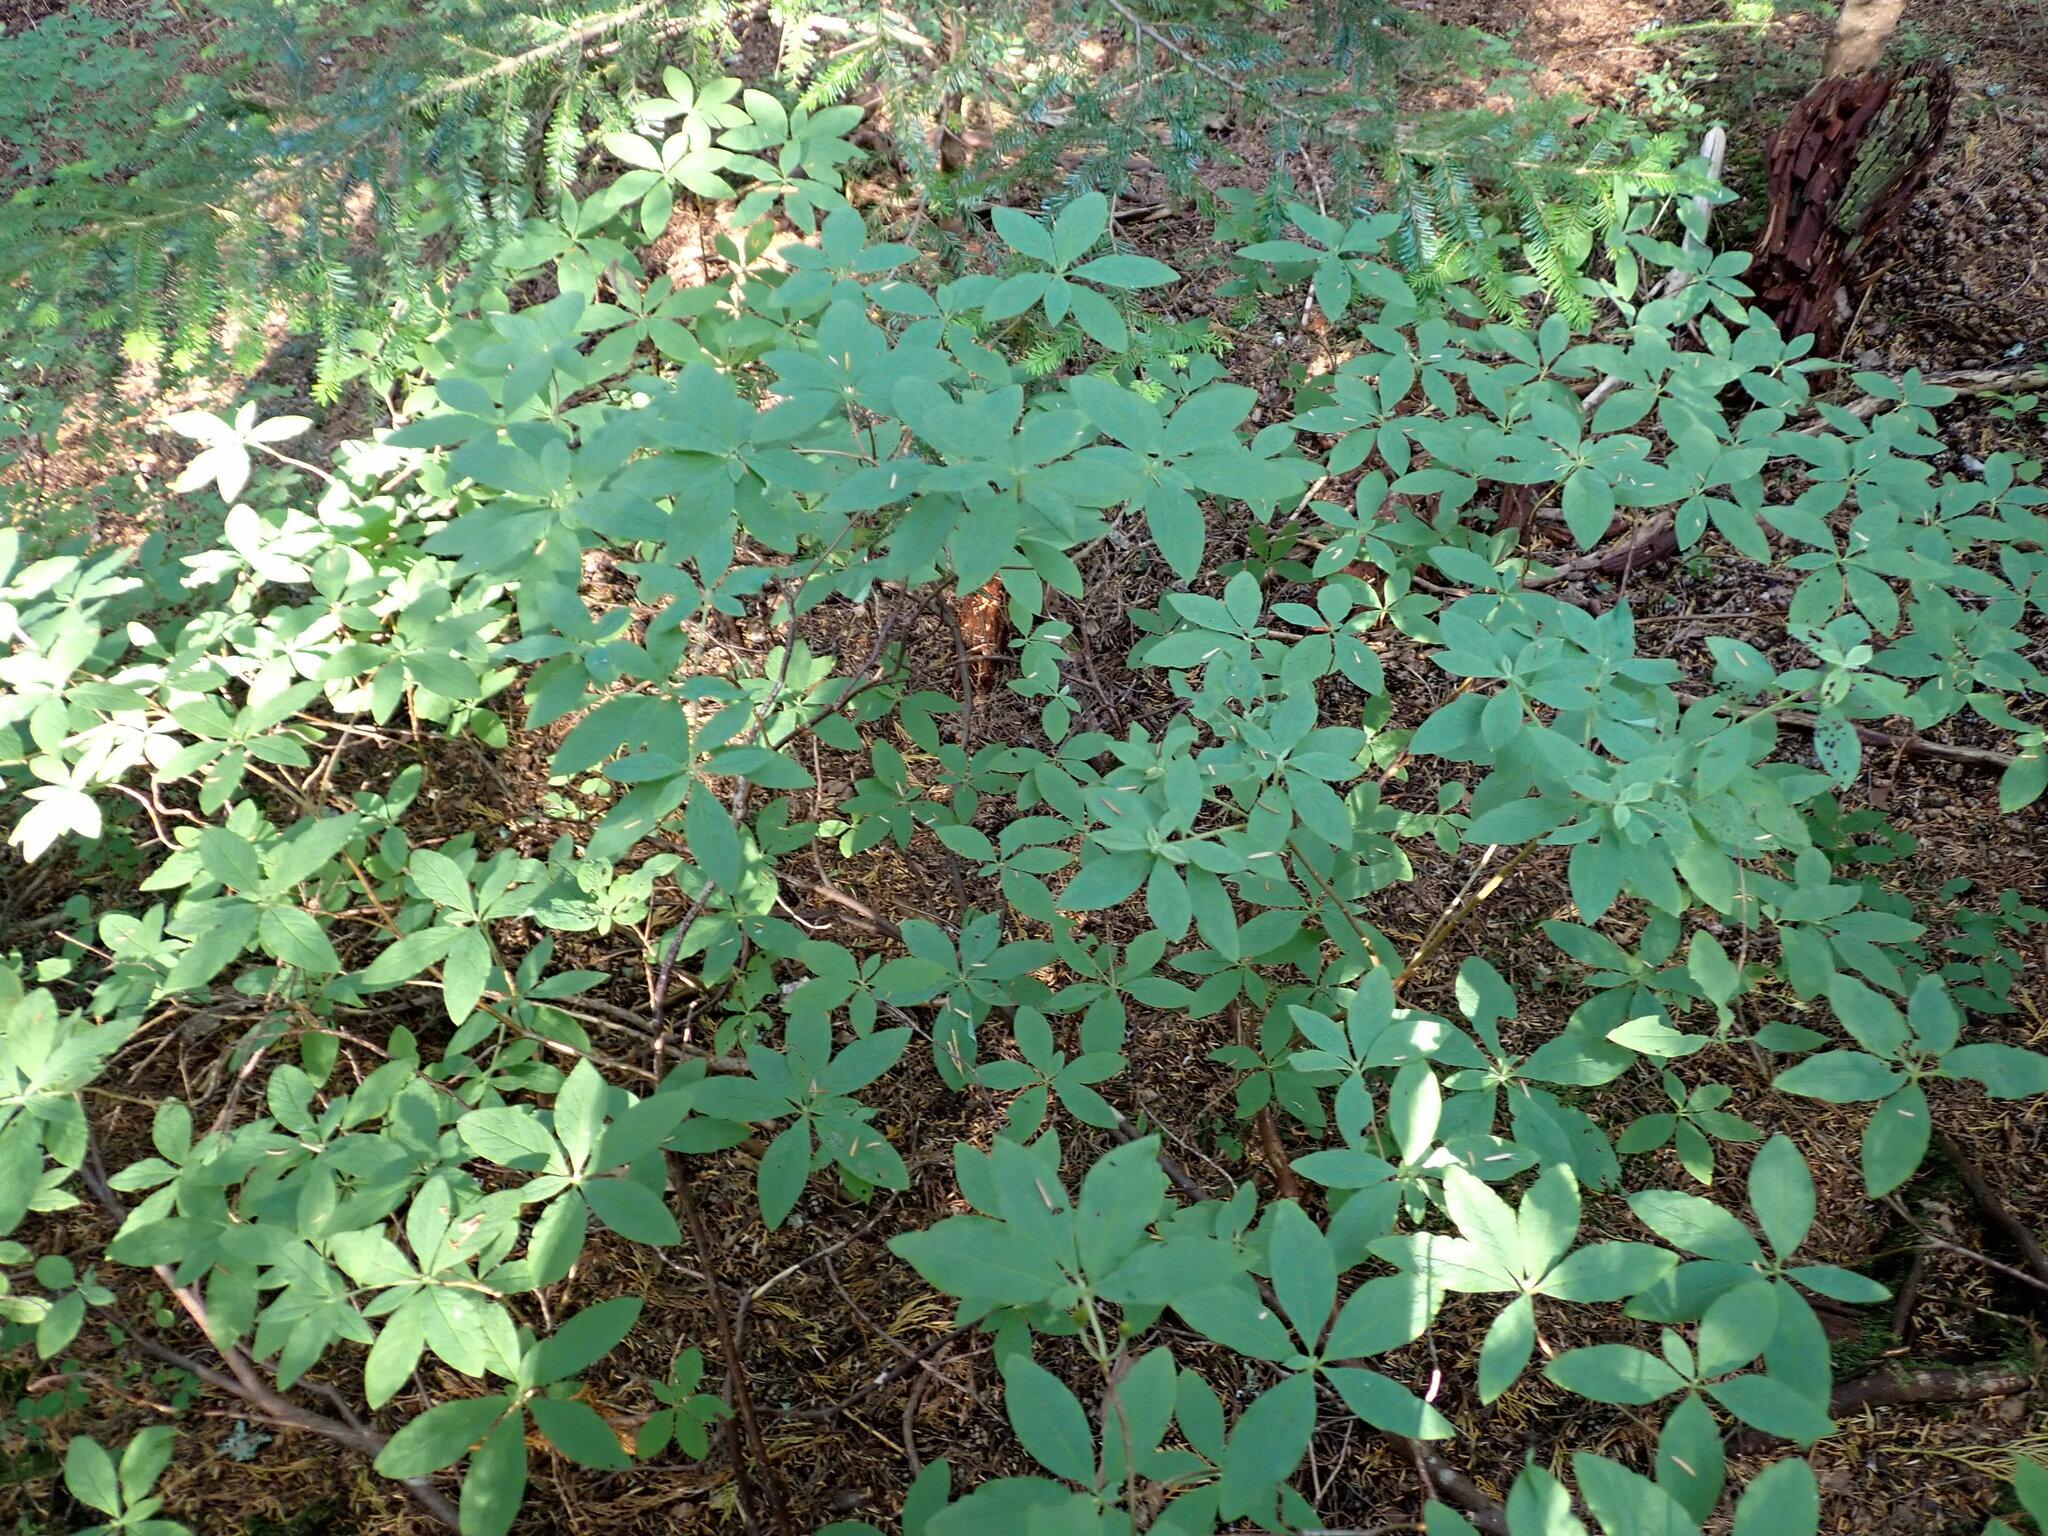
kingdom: Plantae
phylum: Tracheophyta
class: Magnoliopsida
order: Ericales
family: Ericaceae
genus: Rhododendron
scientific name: Rhododendron menziesii
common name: Pacific menziesia
